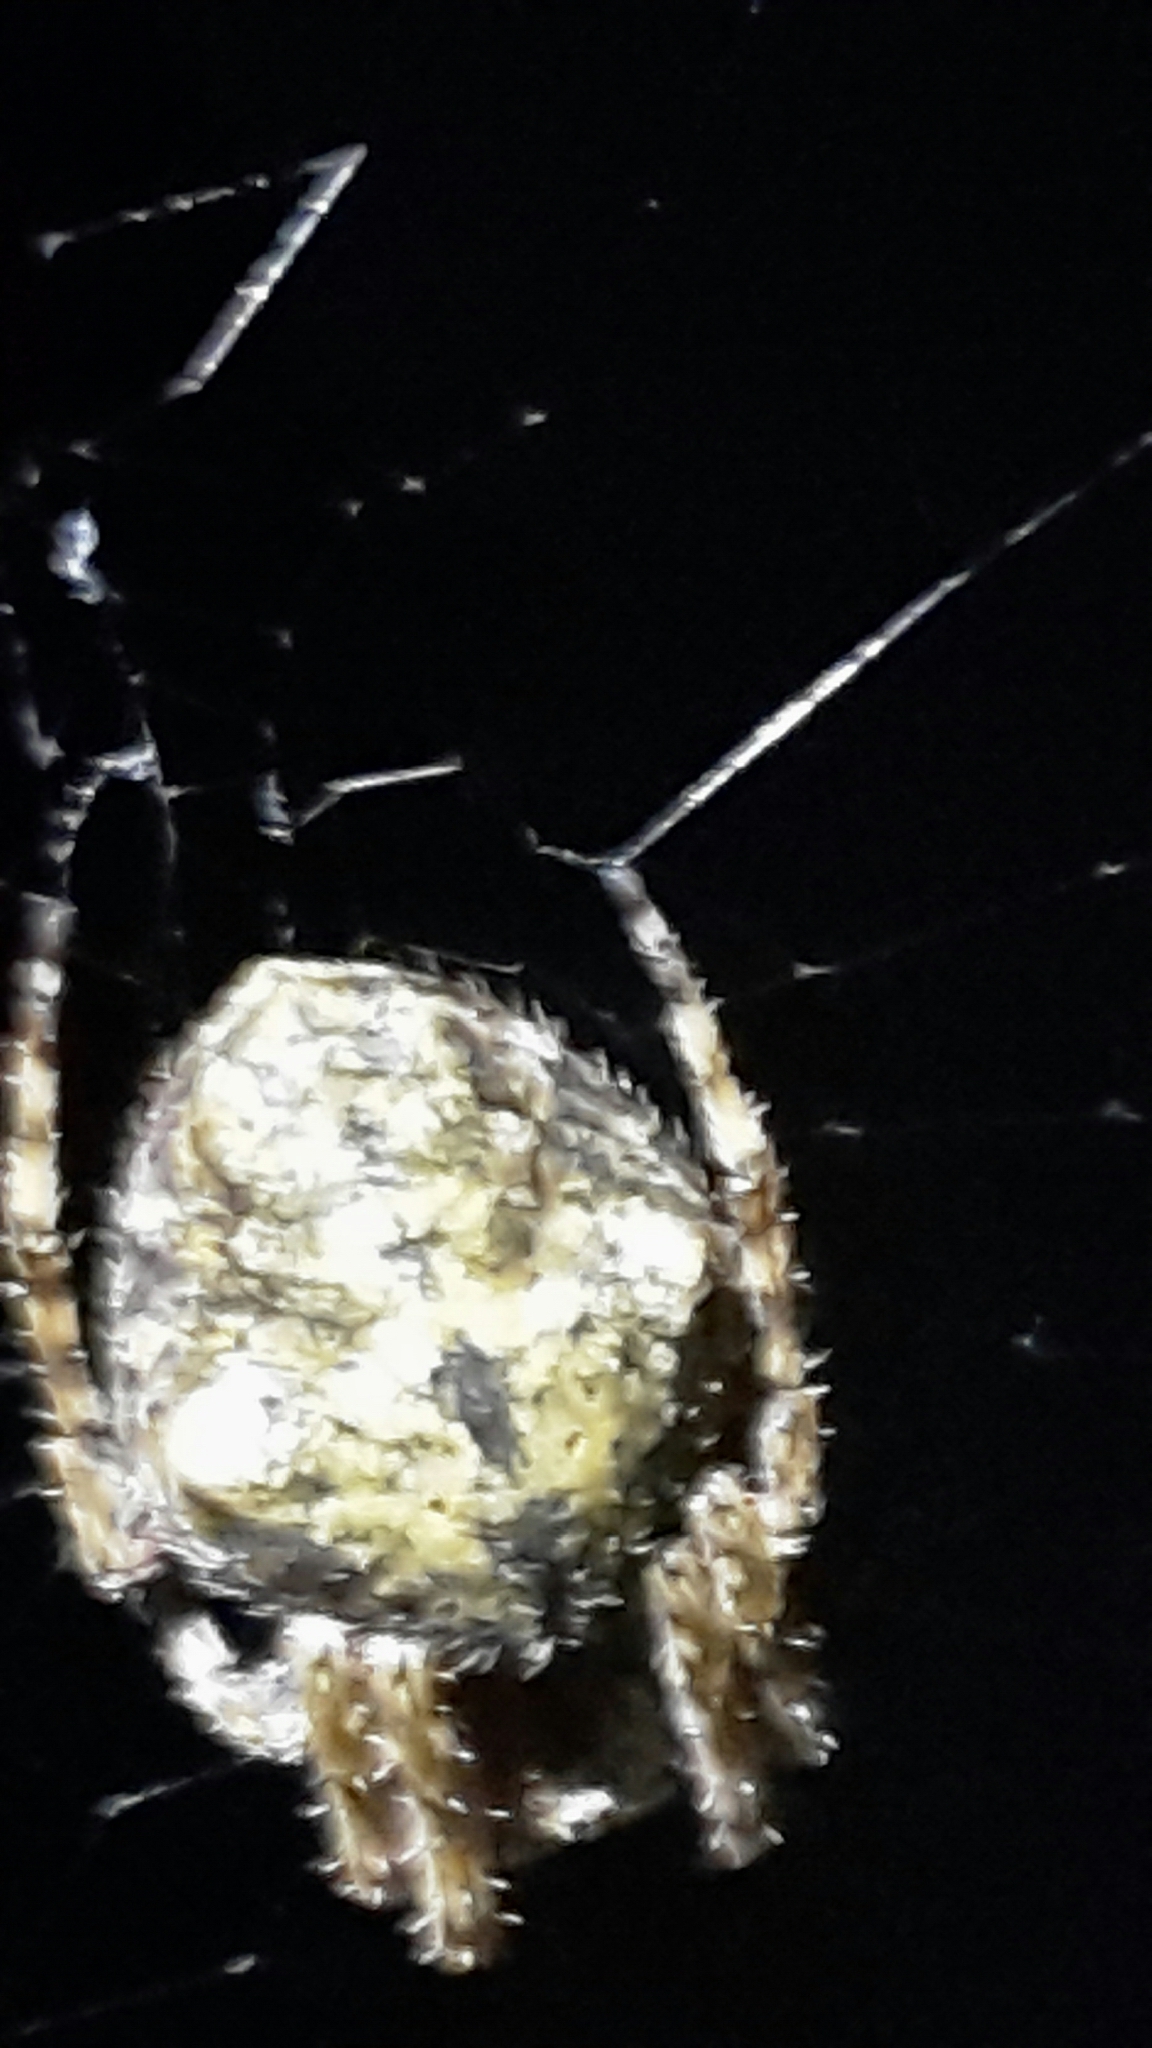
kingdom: Animalia
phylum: Arthropoda
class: Arachnida
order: Araneae
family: Araneidae
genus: Eriophora
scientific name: Eriophora pustulosa
